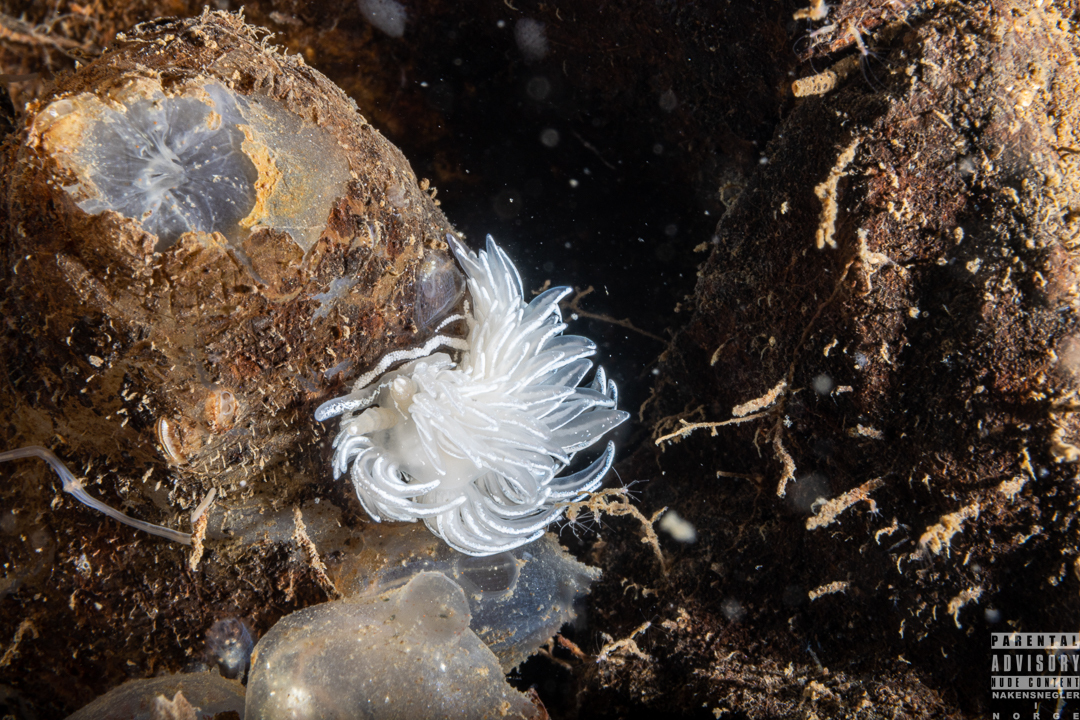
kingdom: Animalia
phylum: Mollusca
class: Gastropoda
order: Nudibranchia
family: Facelinidae
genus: Favorinus
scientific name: Favorinus blianus
